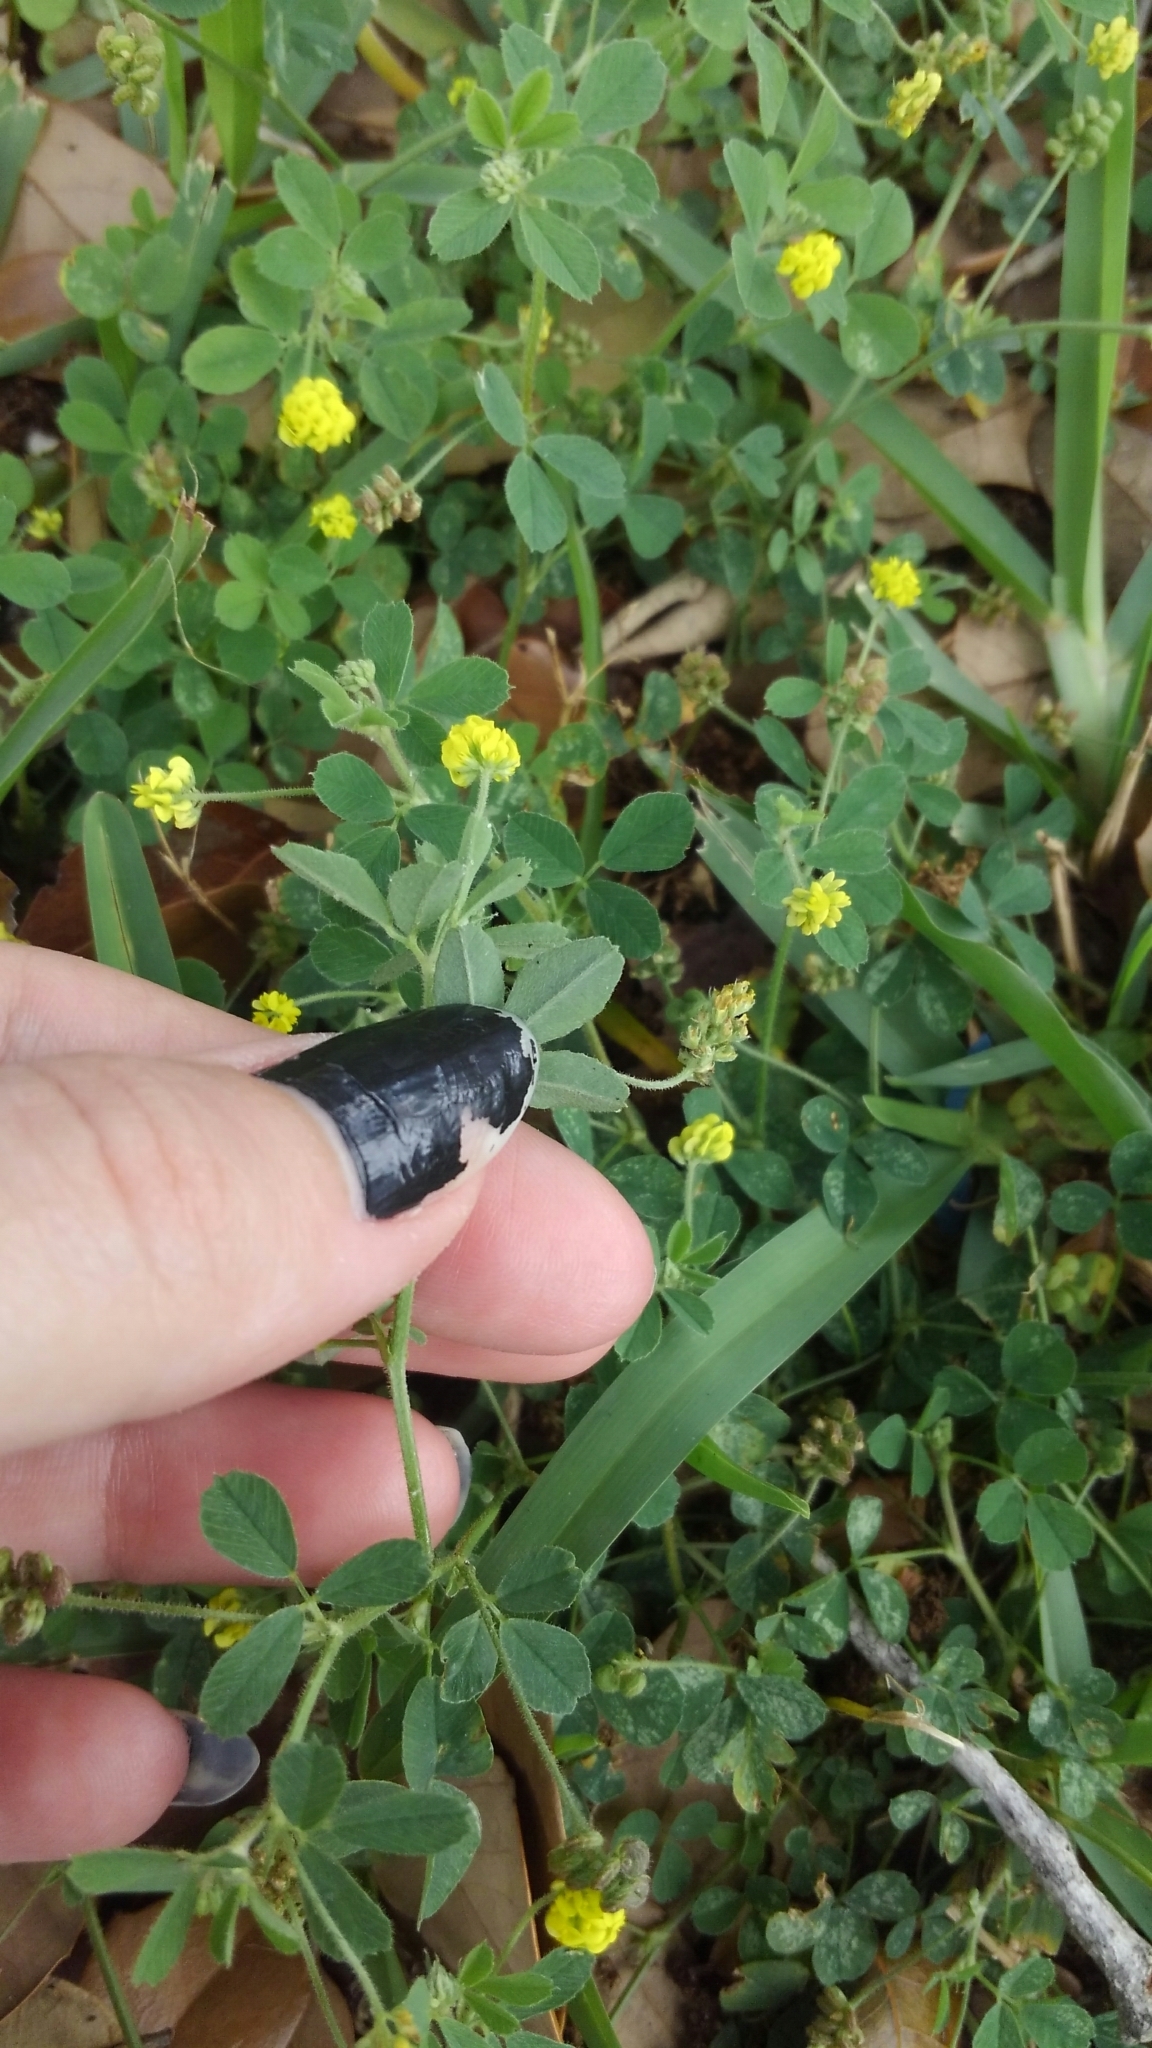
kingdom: Plantae
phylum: Tracheophyta
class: Magnoliopsida
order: Fabales
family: Fabaceae
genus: Medicago
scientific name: Medicago lupulina
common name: Black medick
